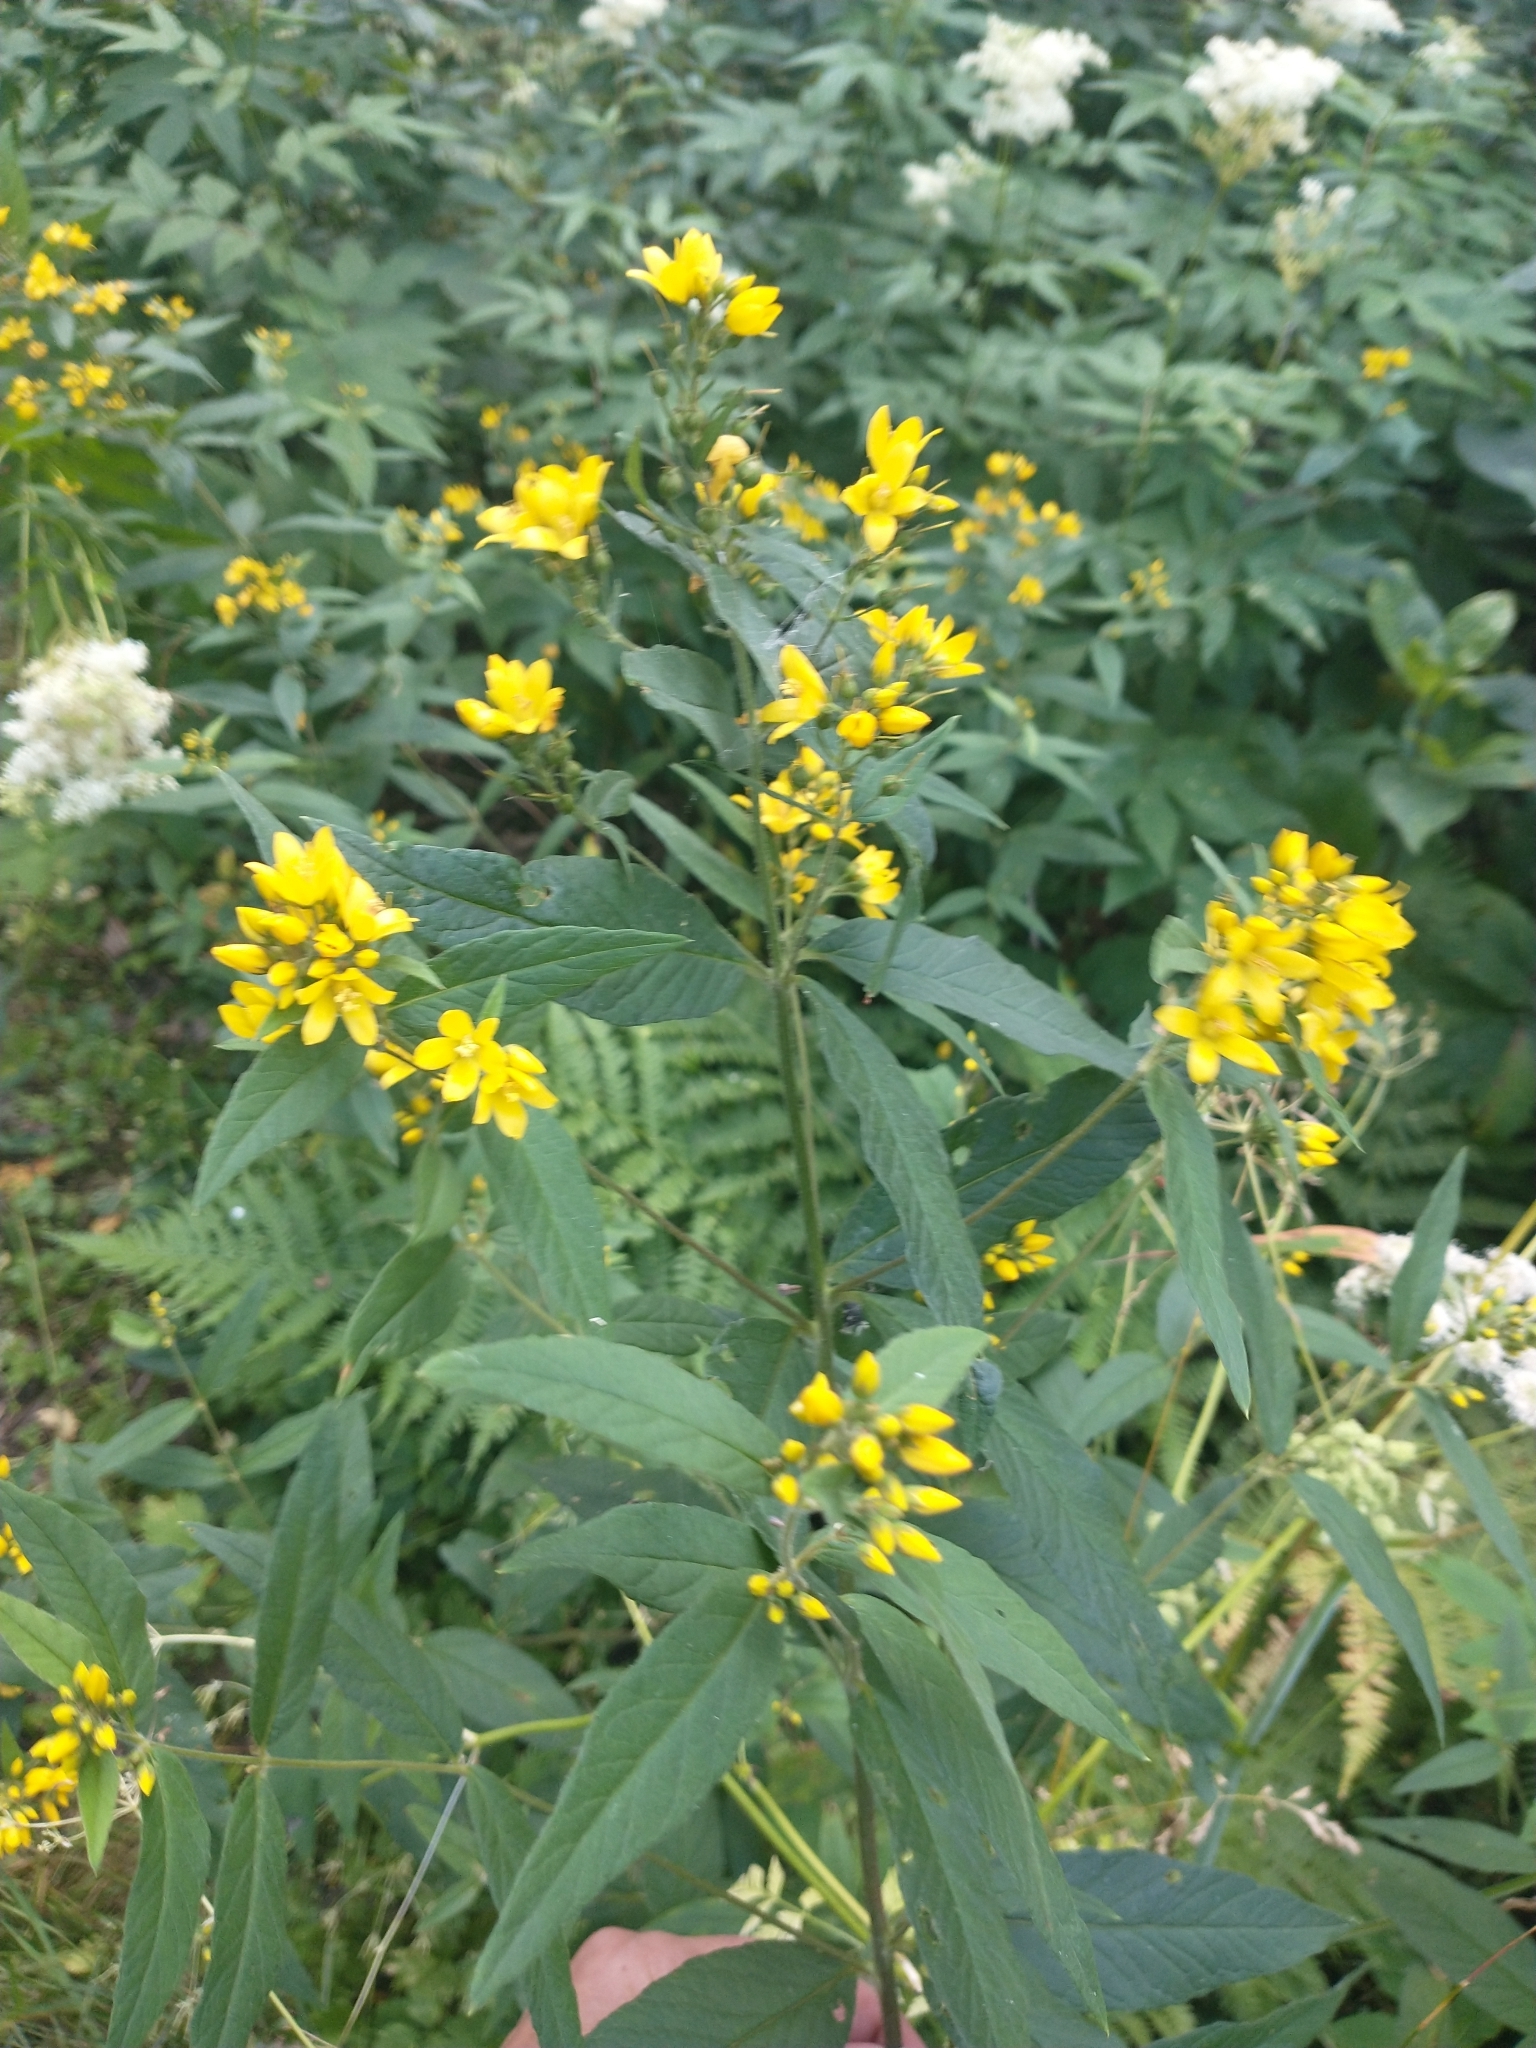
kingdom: Plantae
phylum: Tracheophyta
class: Magnoliopsida
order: Ericales
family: Primulaceae
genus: Lysimachia
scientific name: Lysimachia vulgaris
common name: Yellow loosestrife
